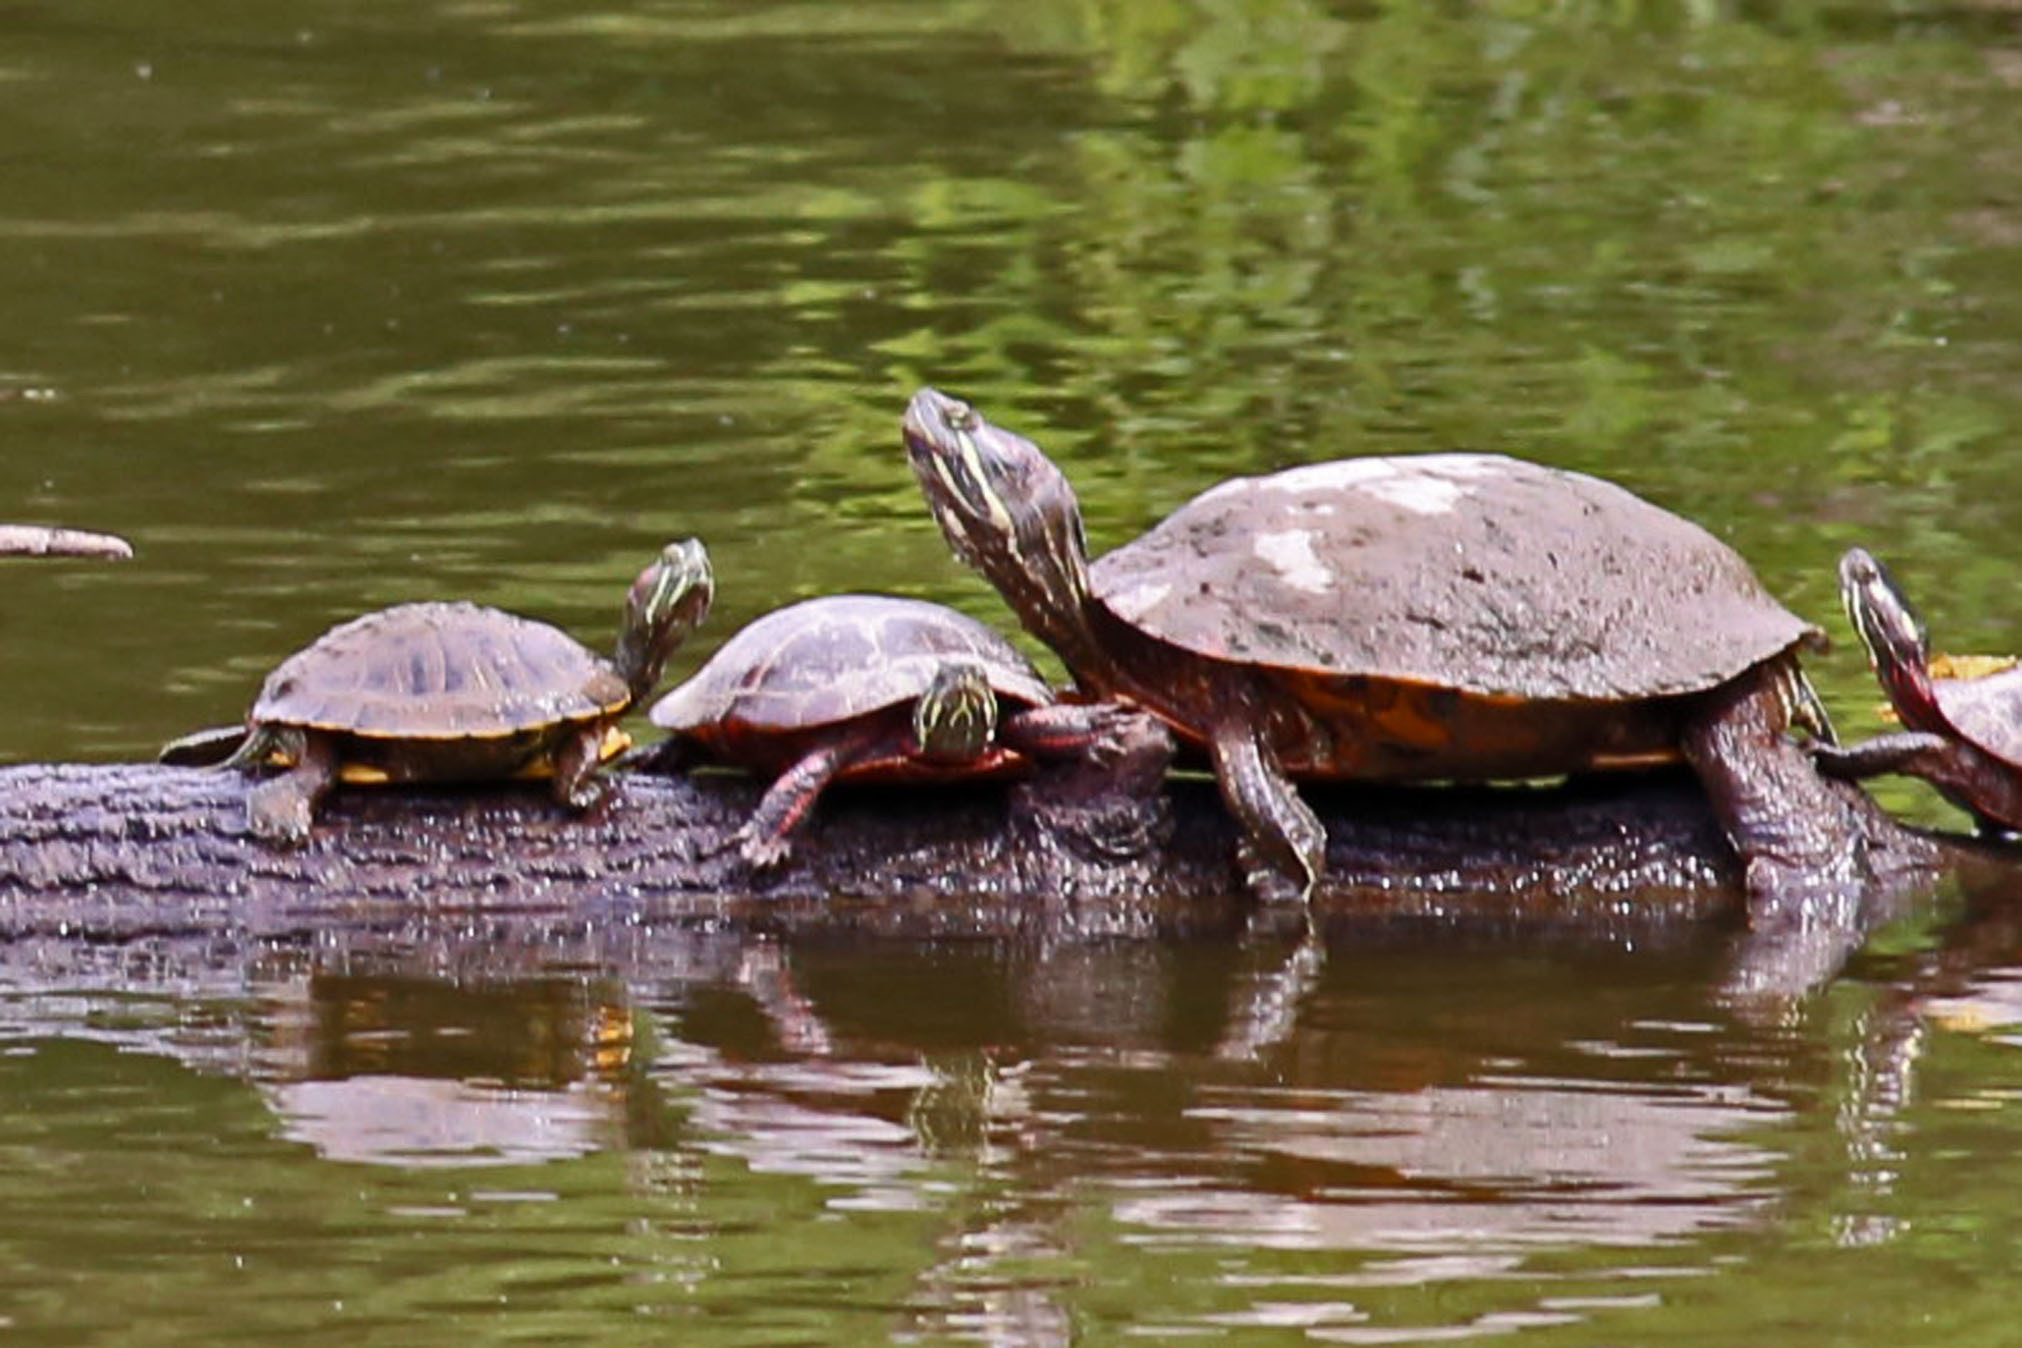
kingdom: Animalia
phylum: Chordata
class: Testudines
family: Emydidae
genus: Trachemys
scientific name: Trachemys scripta
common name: Slider
